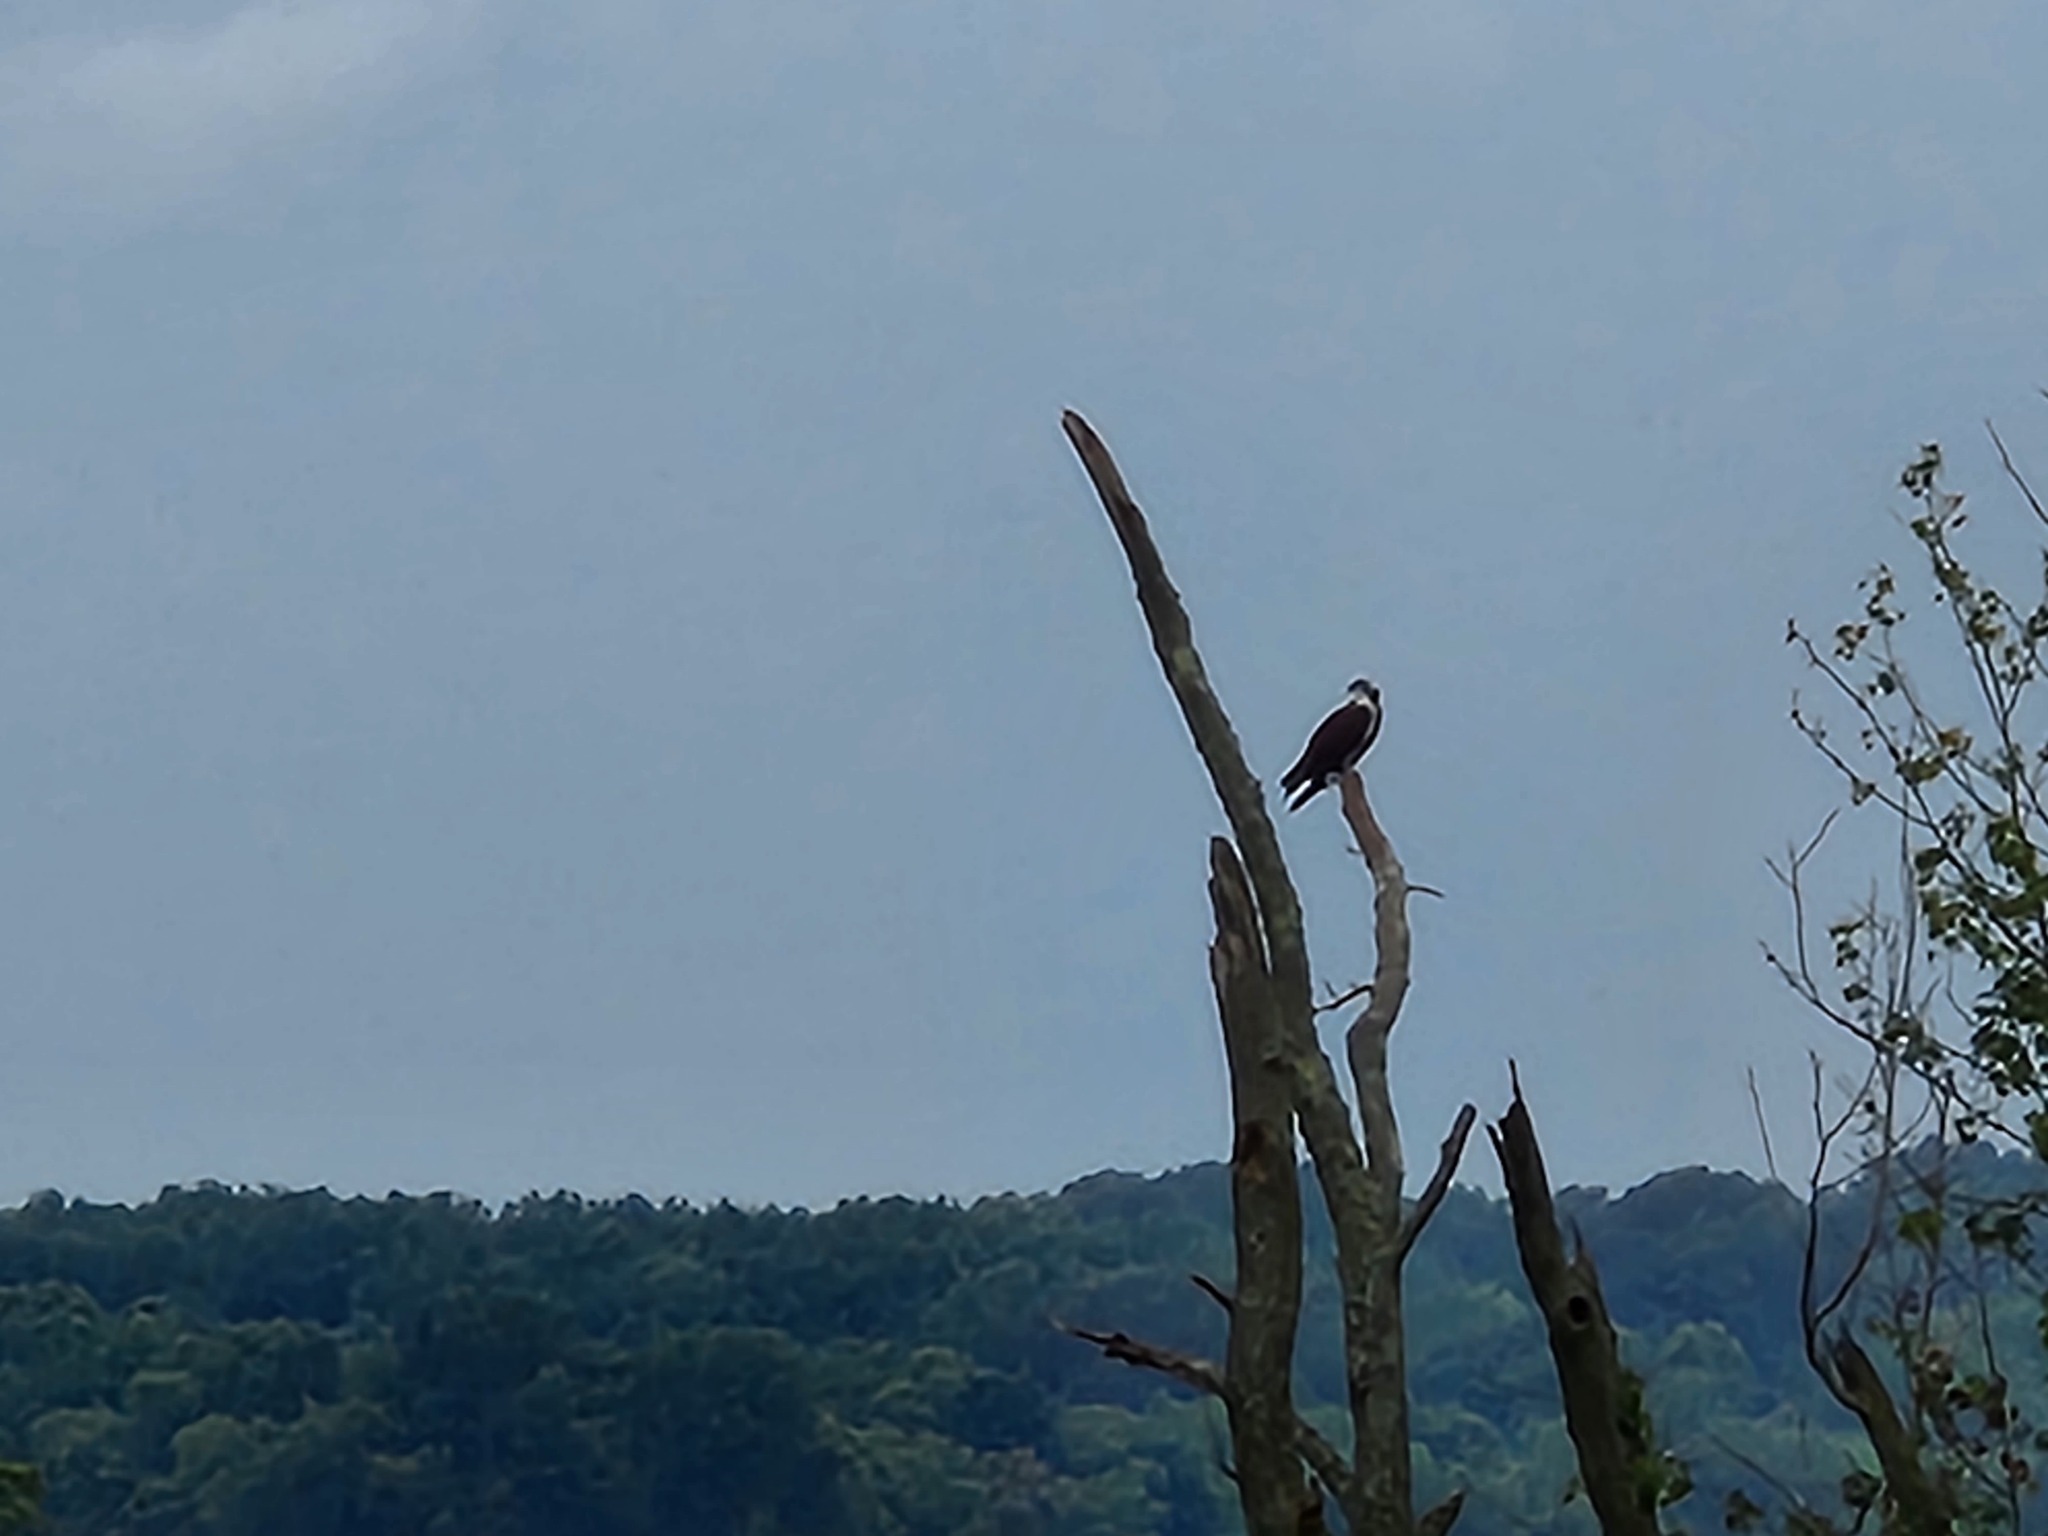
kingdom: Animalia
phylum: Chordata
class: Aves
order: Accipitriformes
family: Pandionidae
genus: Pandion
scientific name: Pandion haliaetus
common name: Osprey
